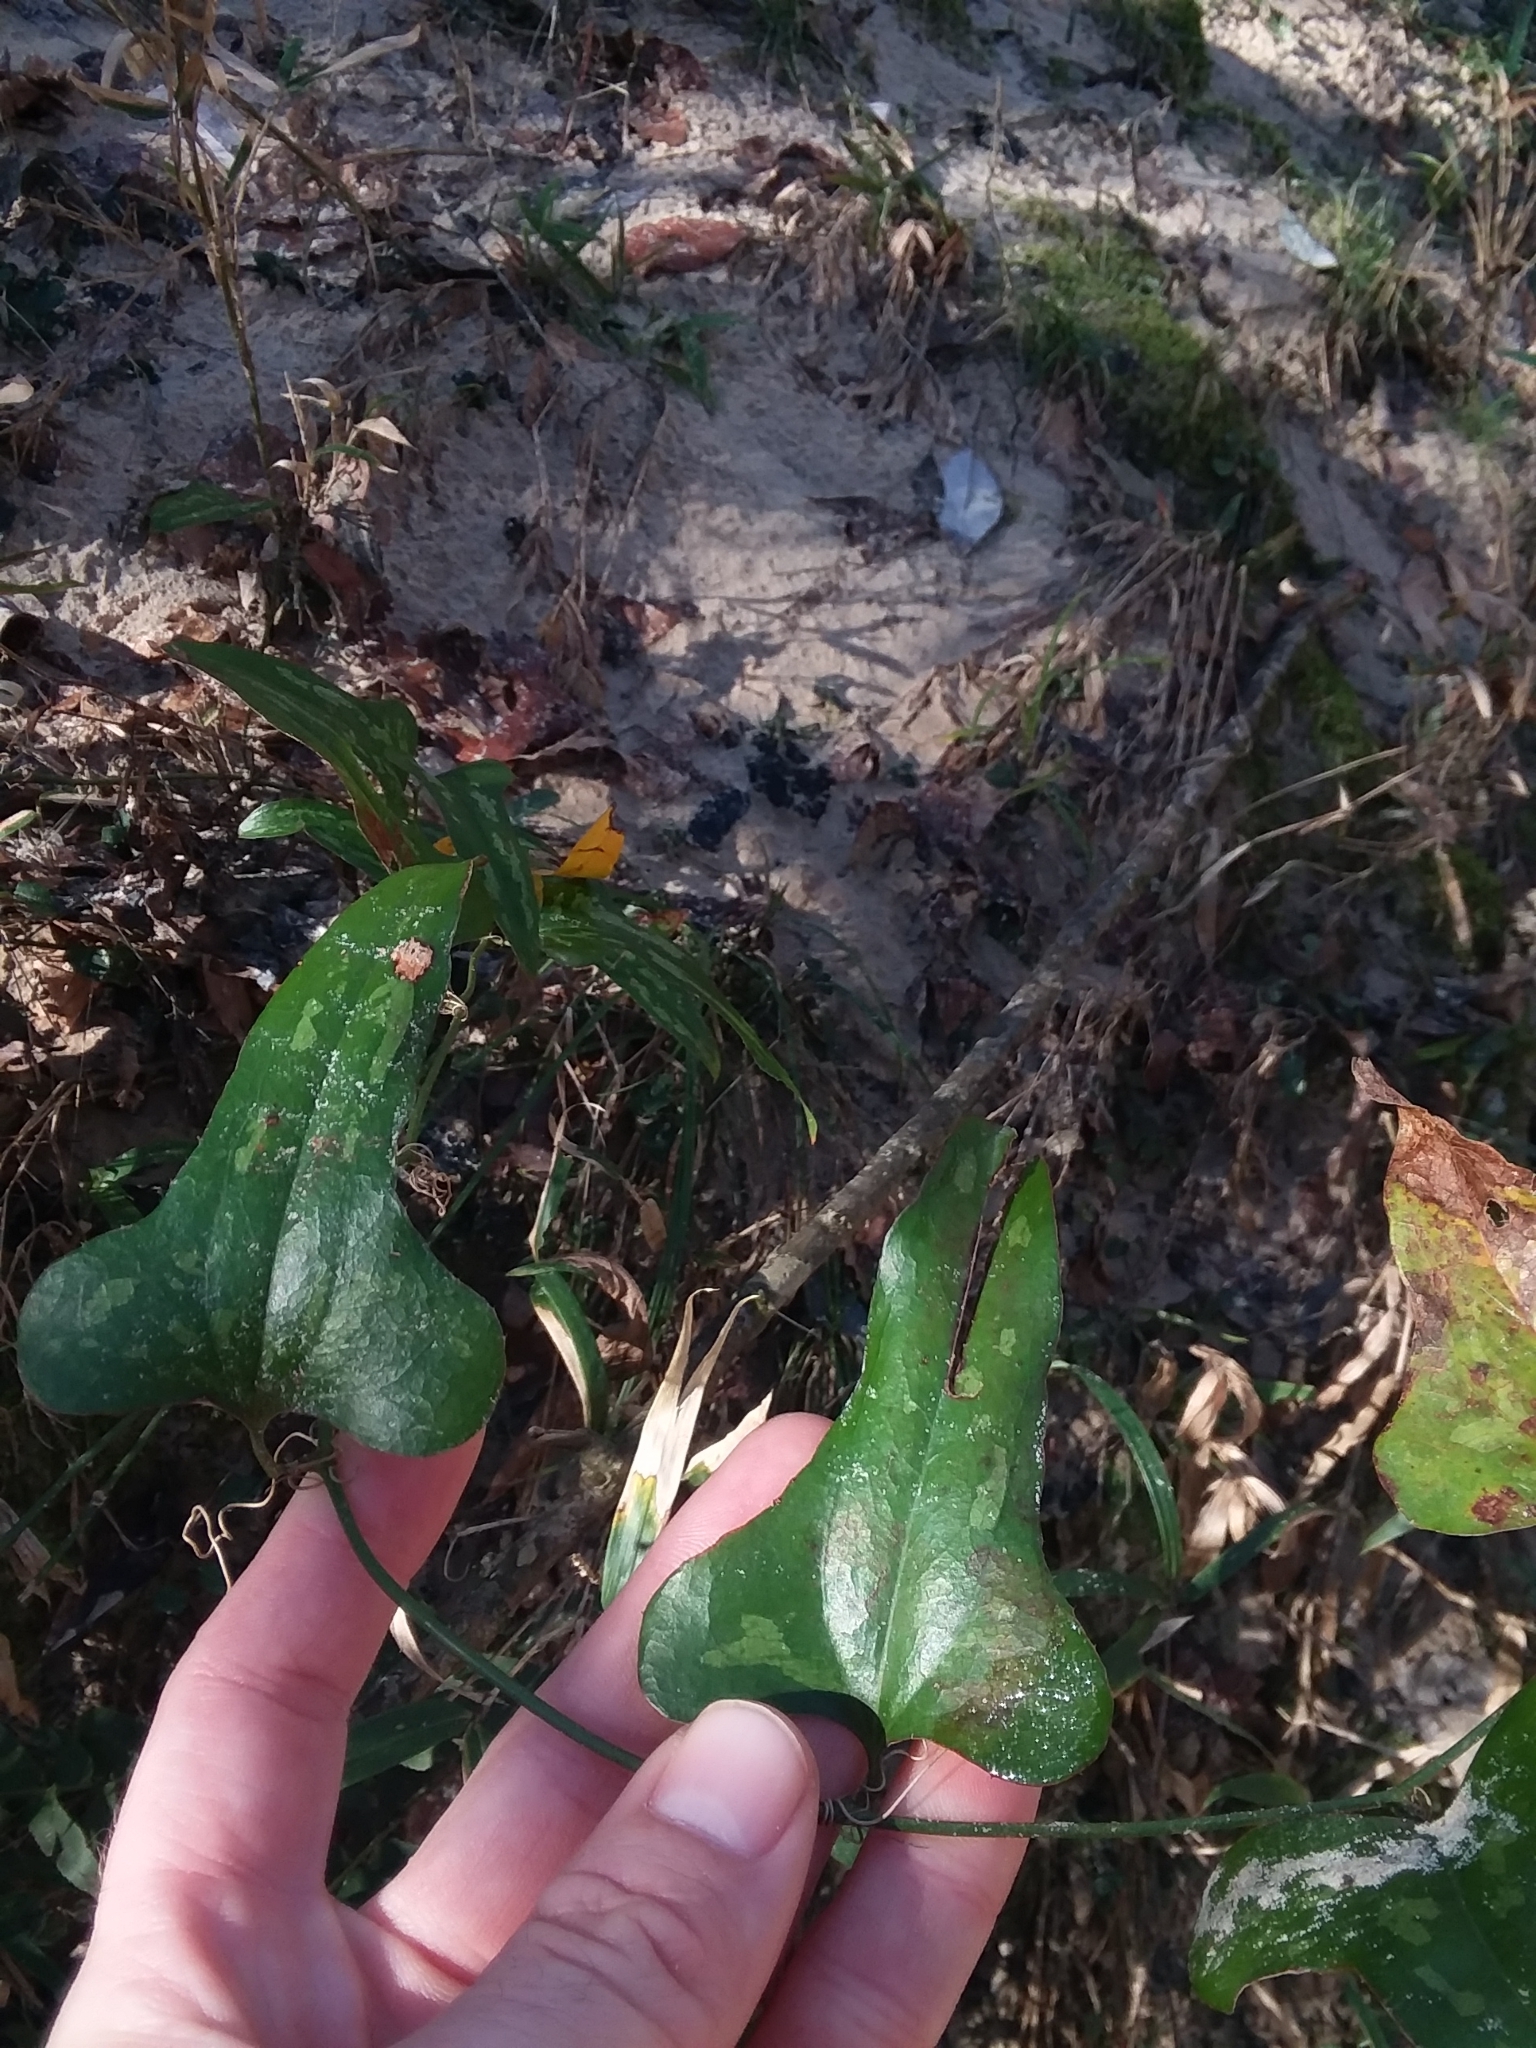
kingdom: Plantae
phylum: Tracheophyta
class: Liliopsida
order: Liliales
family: Smilacaceae
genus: Smilax
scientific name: Smilax bona-nox
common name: Catbrier
